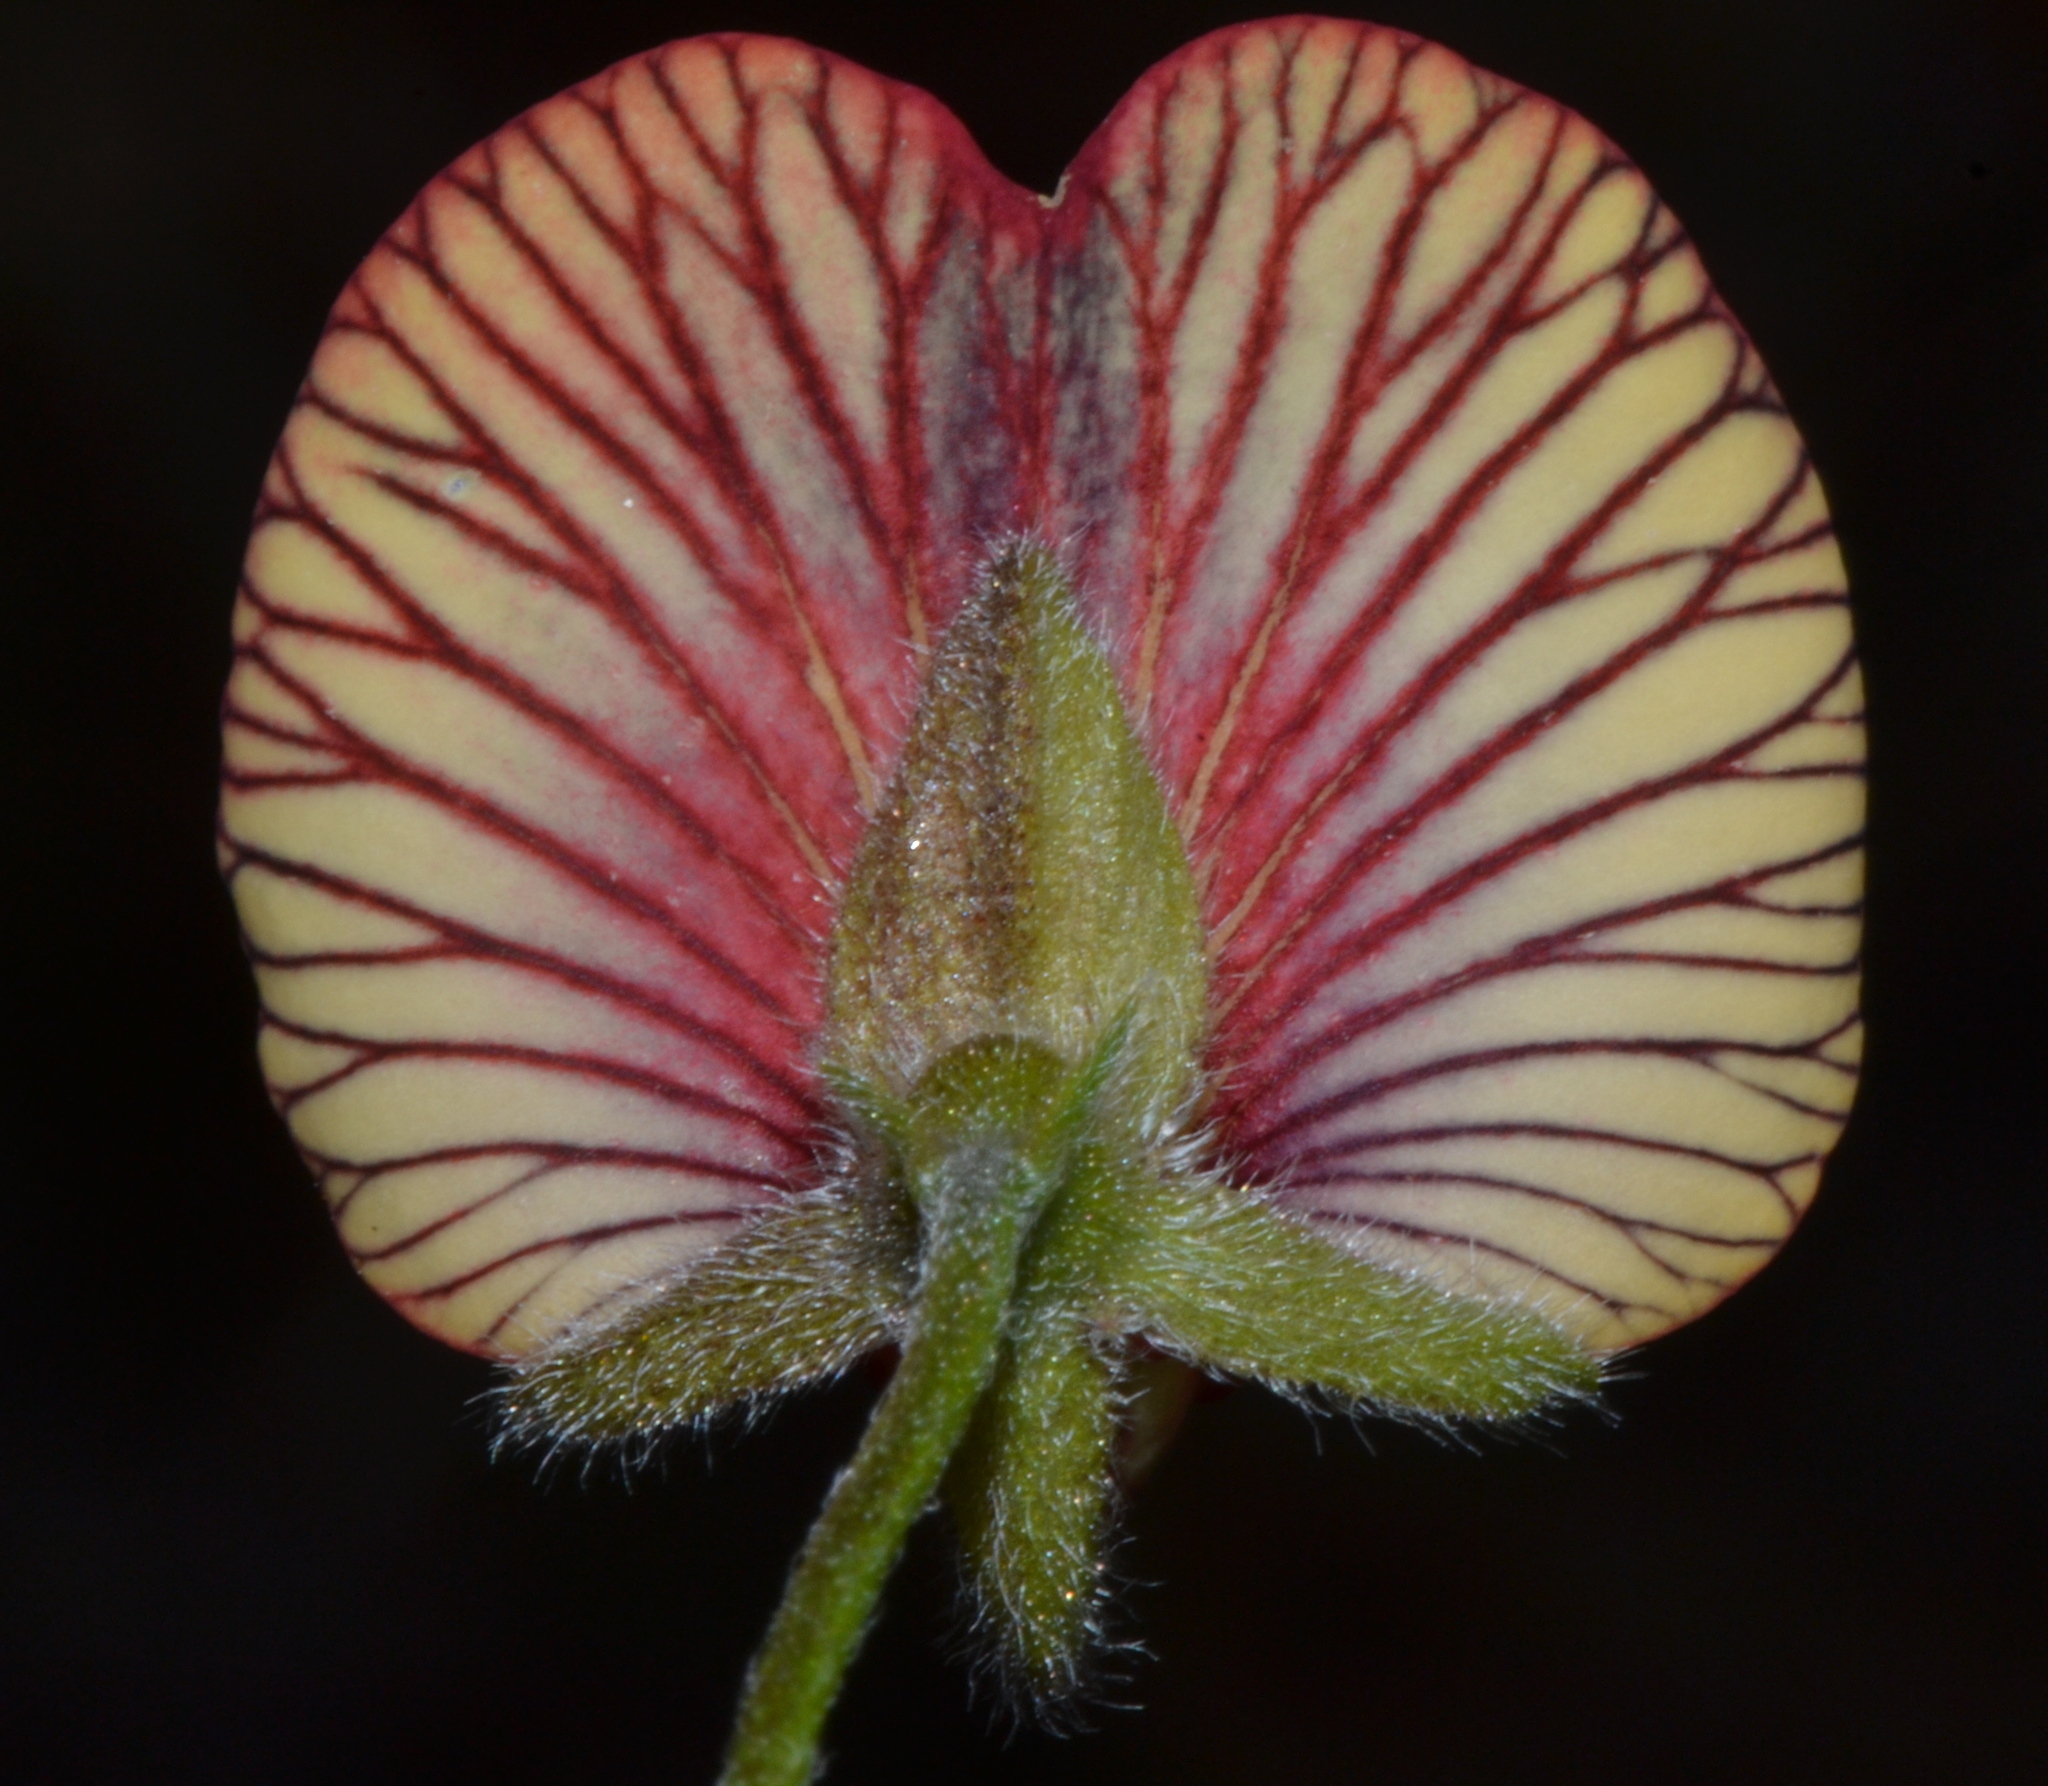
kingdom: Plantae
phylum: Tracheophyta
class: Magnoliopsida
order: Fabales
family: Fabaceae
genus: Isotropis
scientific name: Isotropis cuneifolia
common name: Granny bonnets
